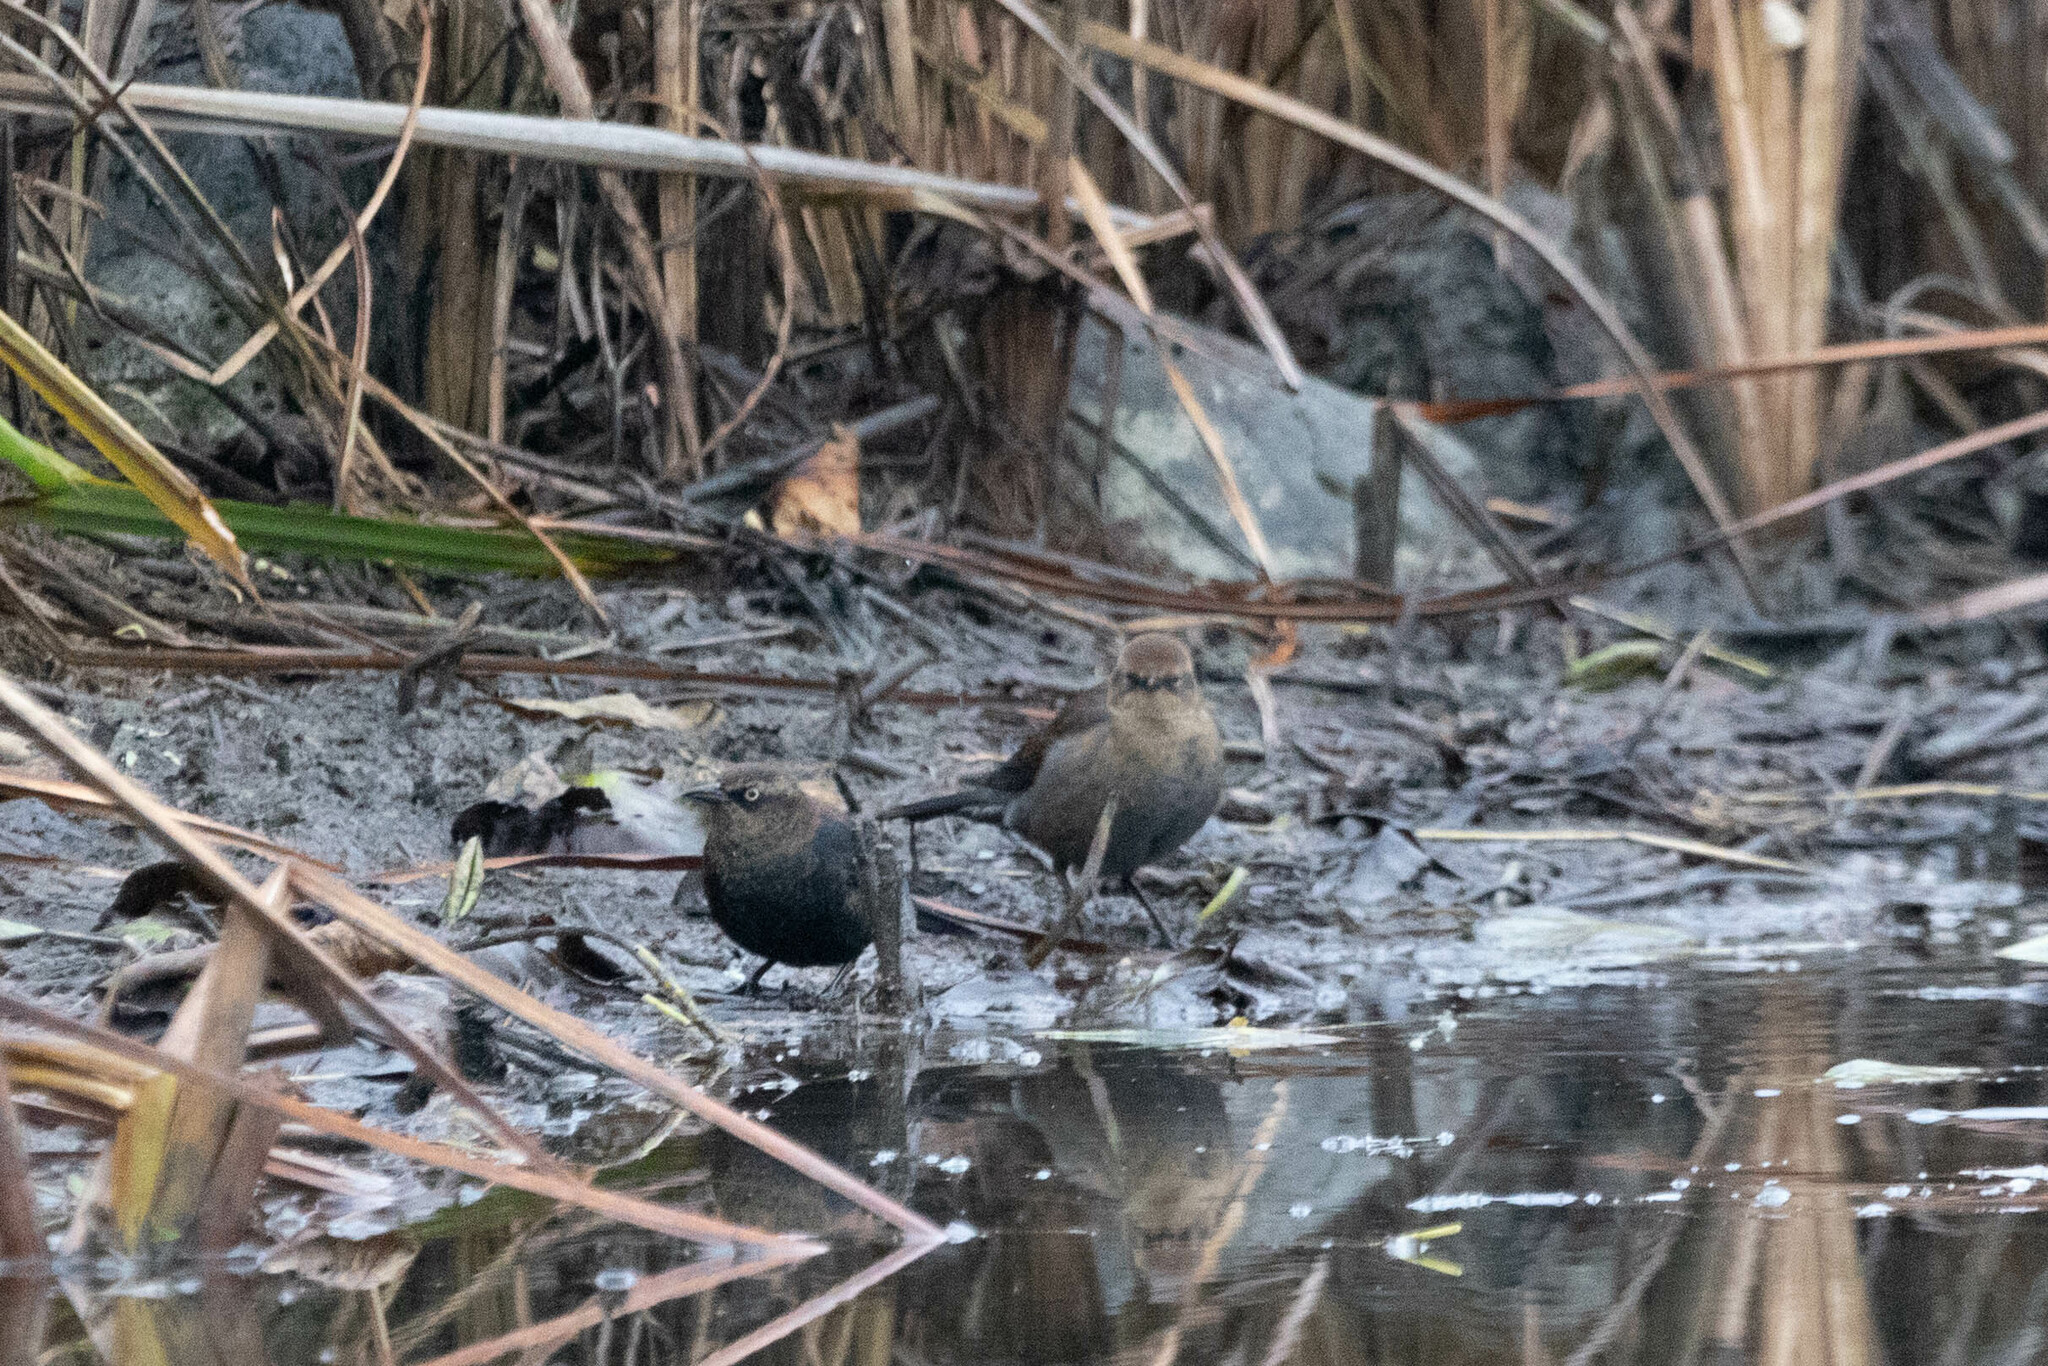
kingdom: Animalia
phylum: Chordata
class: Aves
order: Passeriformes
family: Icteridae
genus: Euphagus
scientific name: Euphagus carolinus
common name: Rusty blackbird
